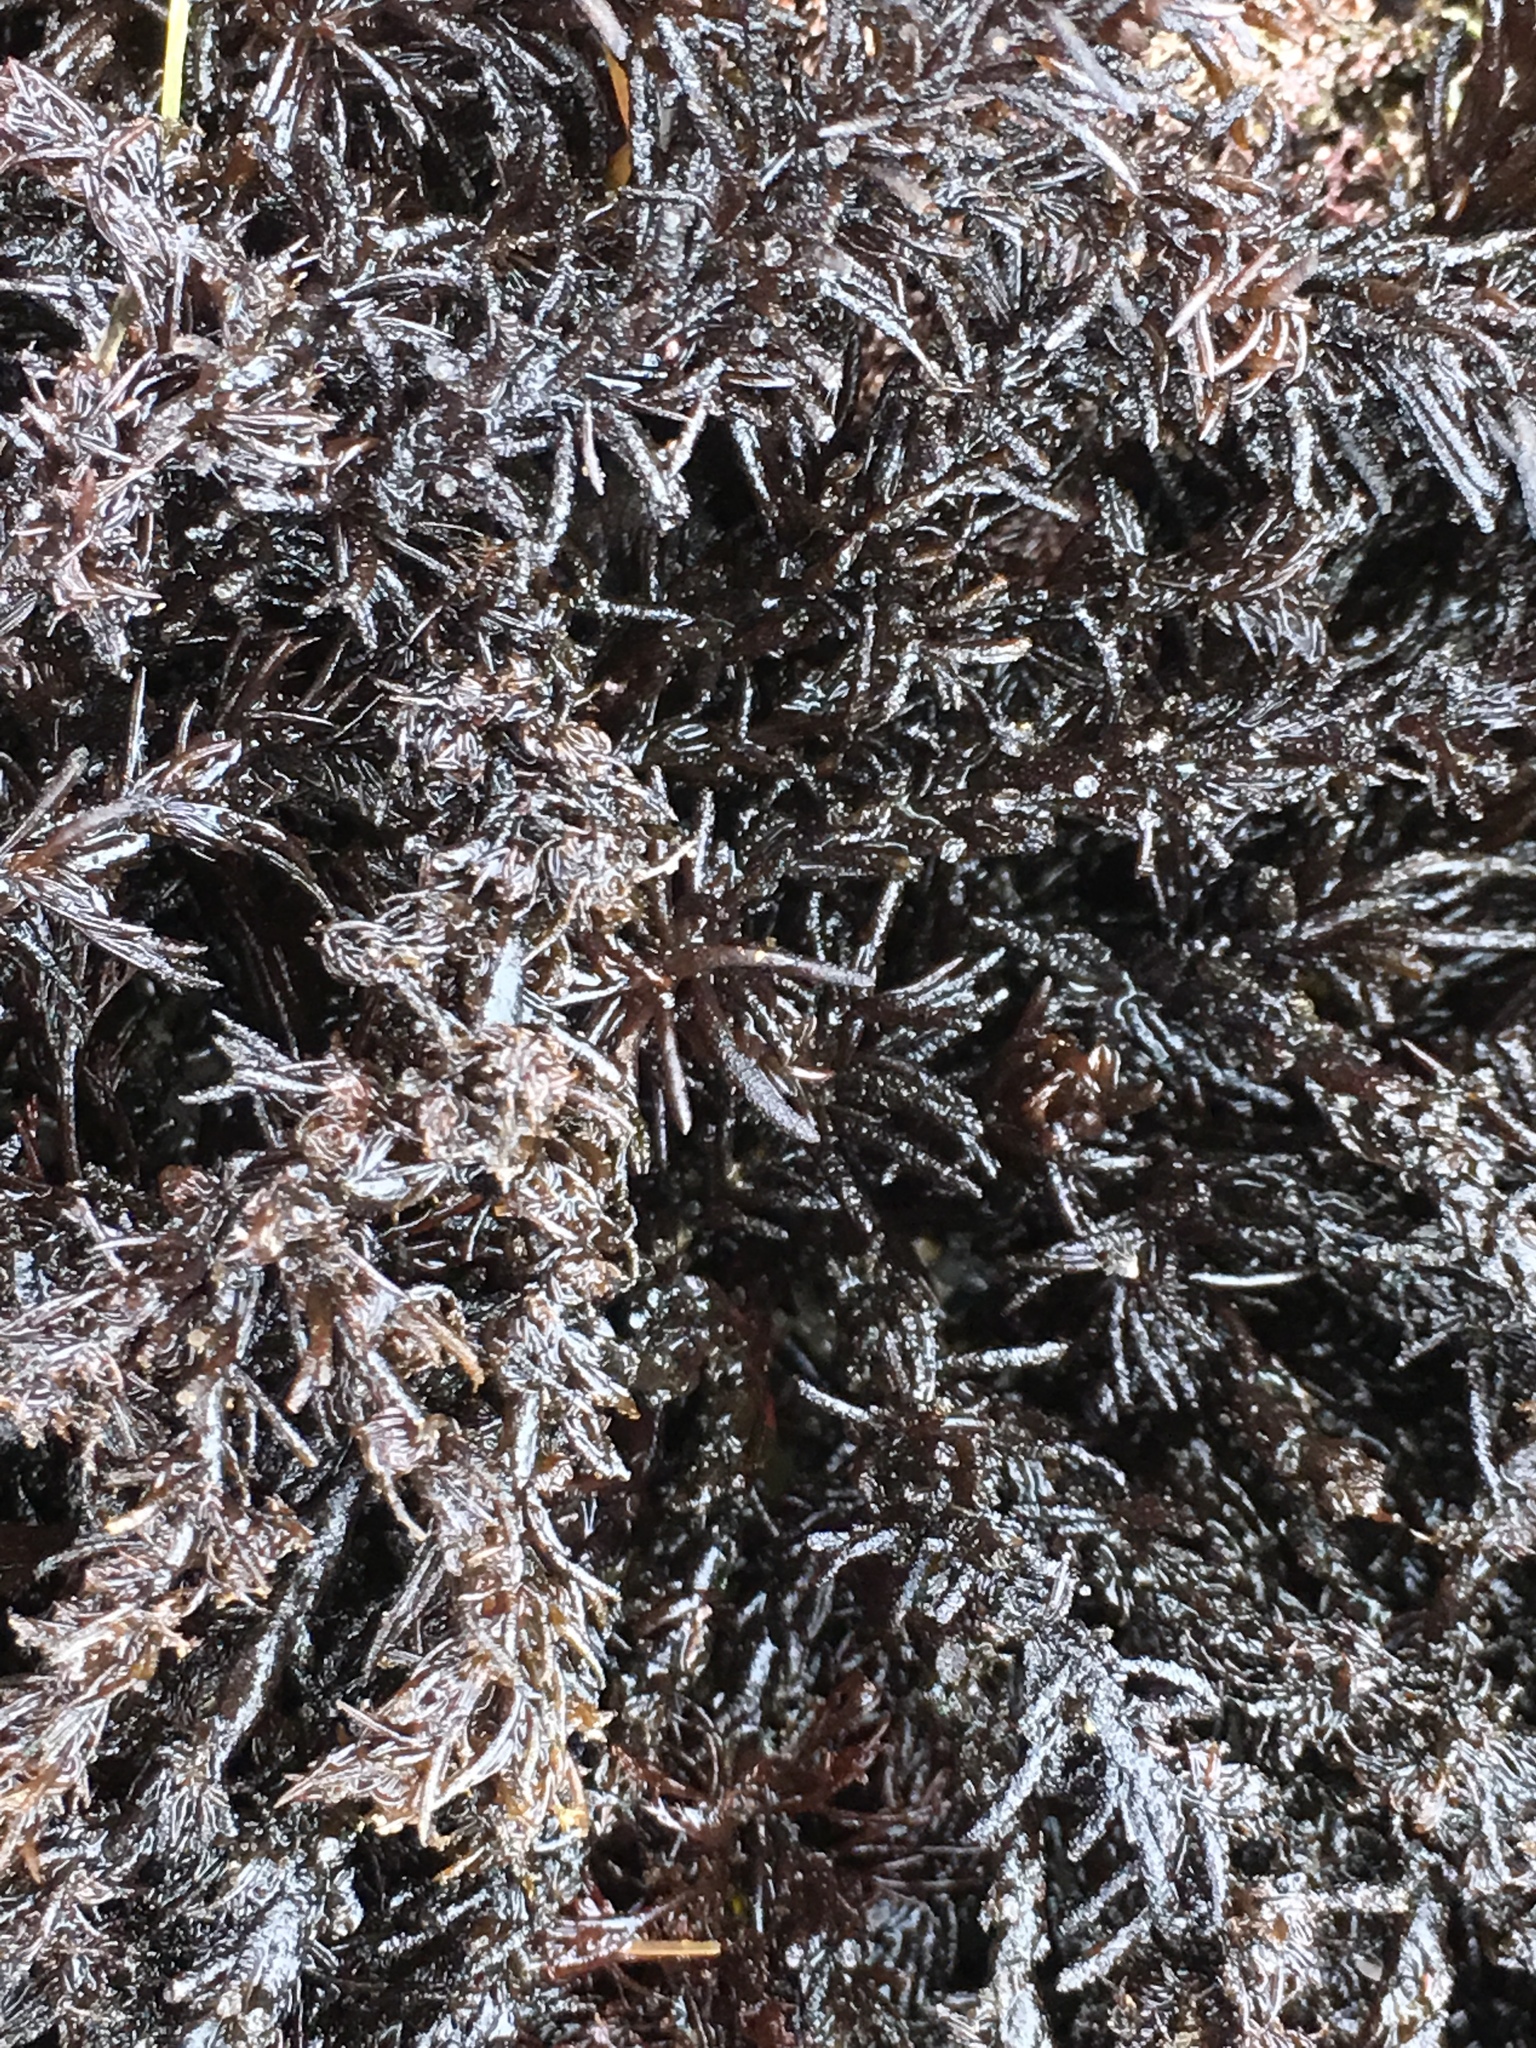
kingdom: Plantae
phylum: Rhodophyta
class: Florideophyceae
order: Ceramiales
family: Rhodomelaceae
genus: Neorhodomela
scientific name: Neorhodomela larix
